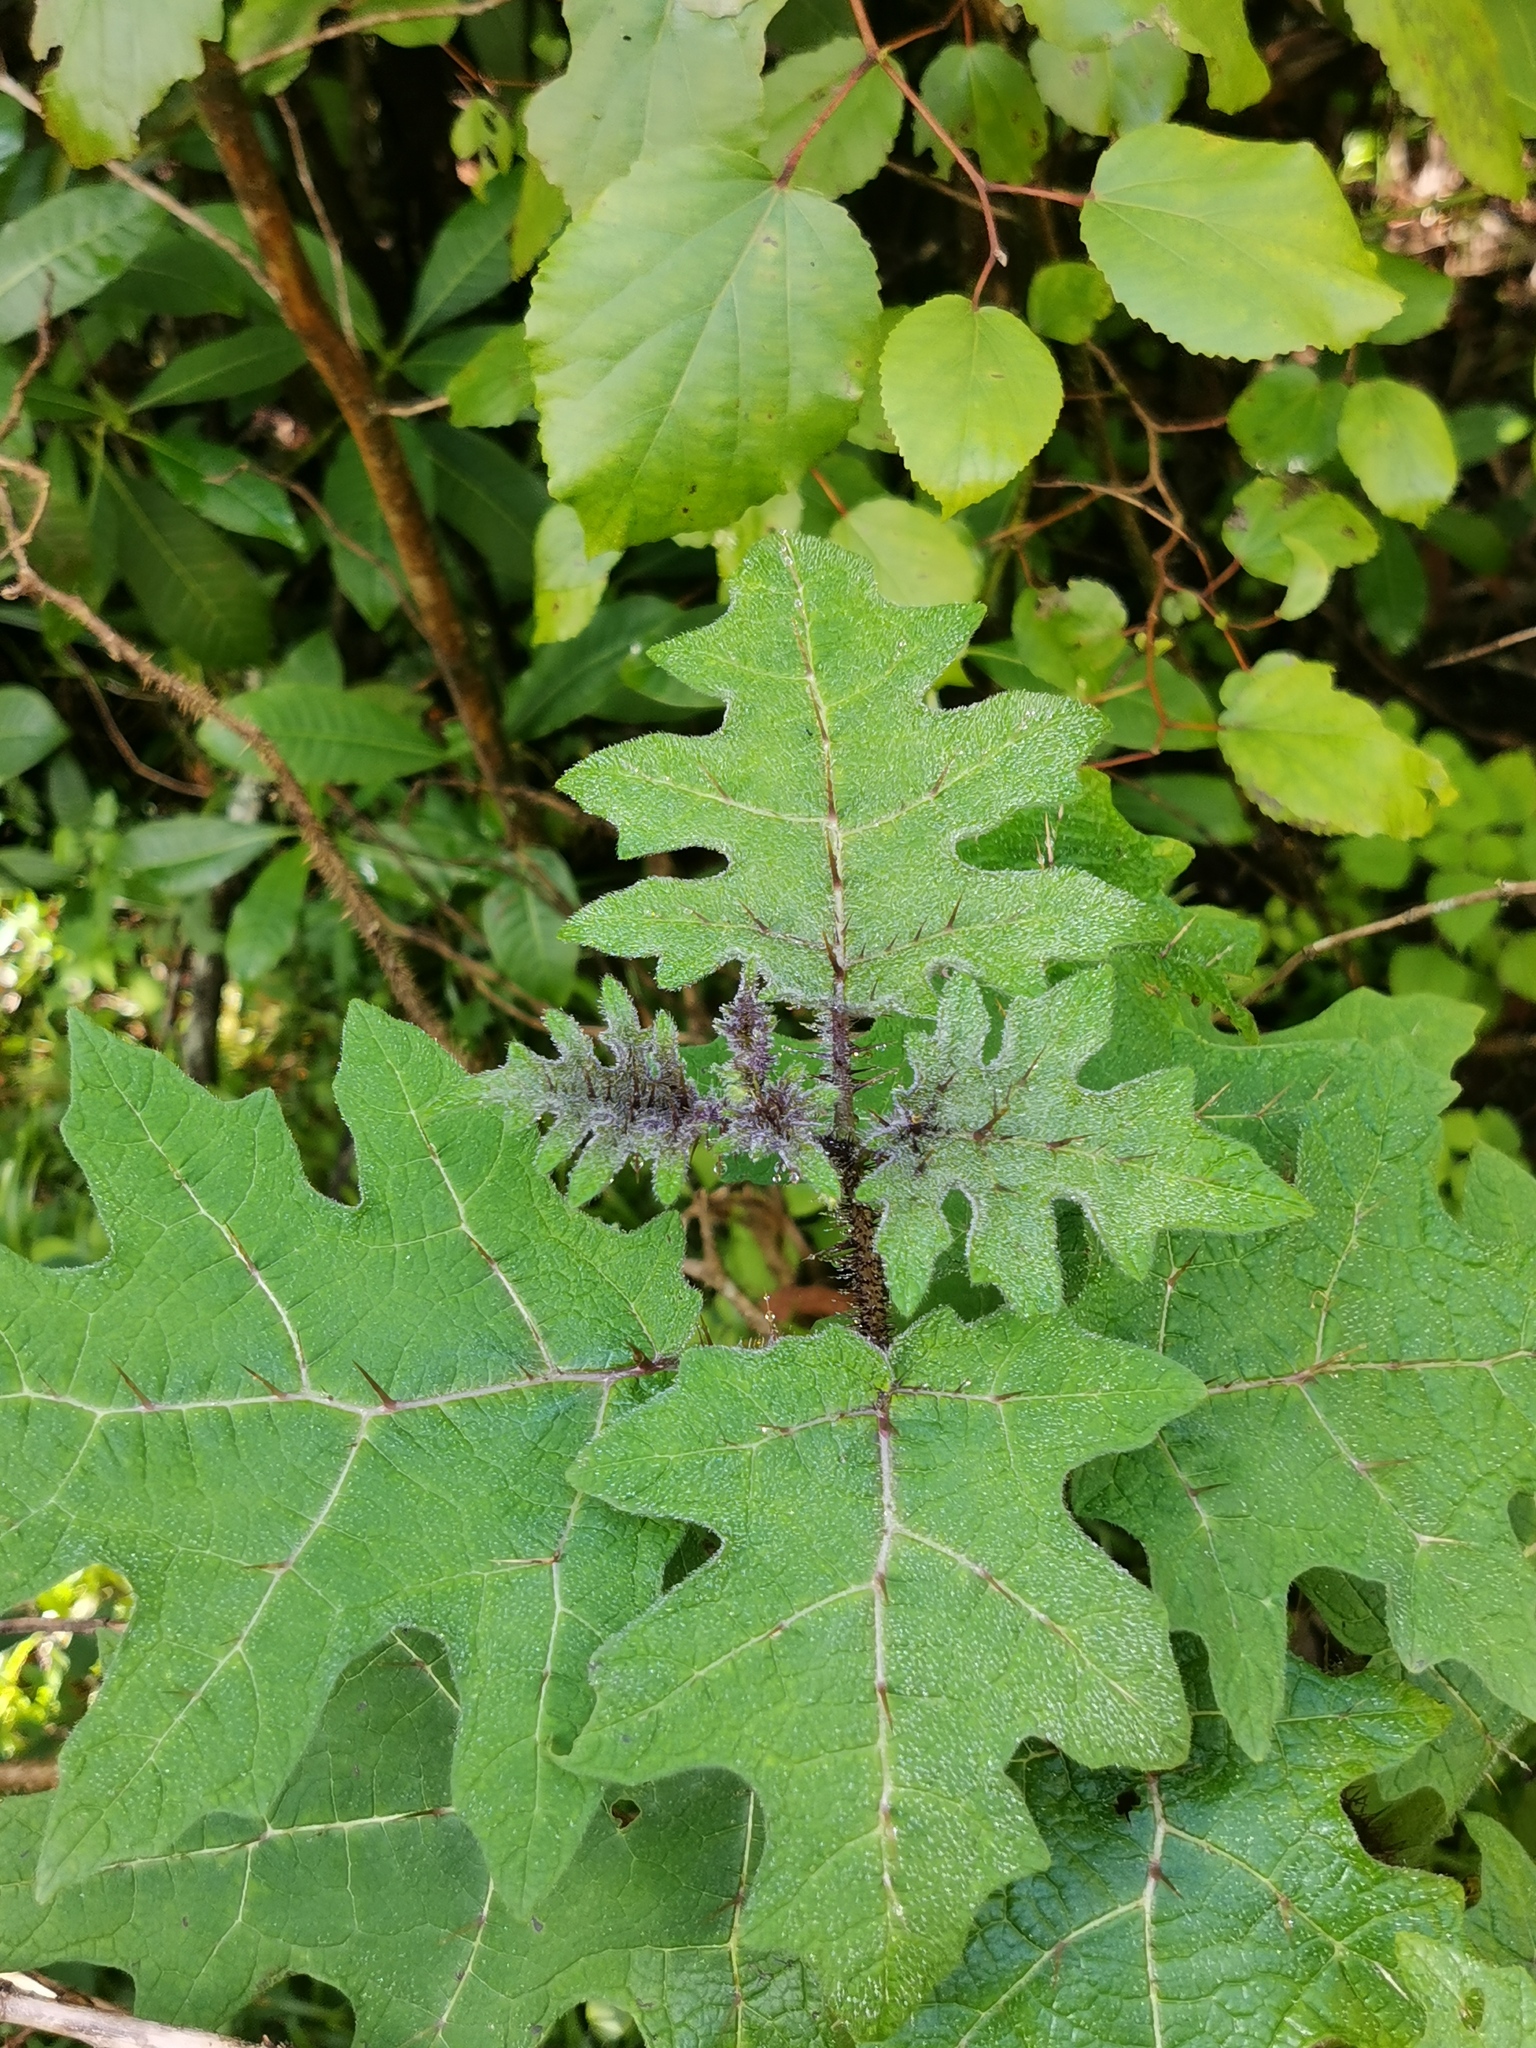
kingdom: Plantae
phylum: Tracheophyta
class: Magnoliopsida
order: Solanales
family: Solanaceae
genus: Solanum
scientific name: Solanum aculeatissimum
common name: Dutch eggplant
